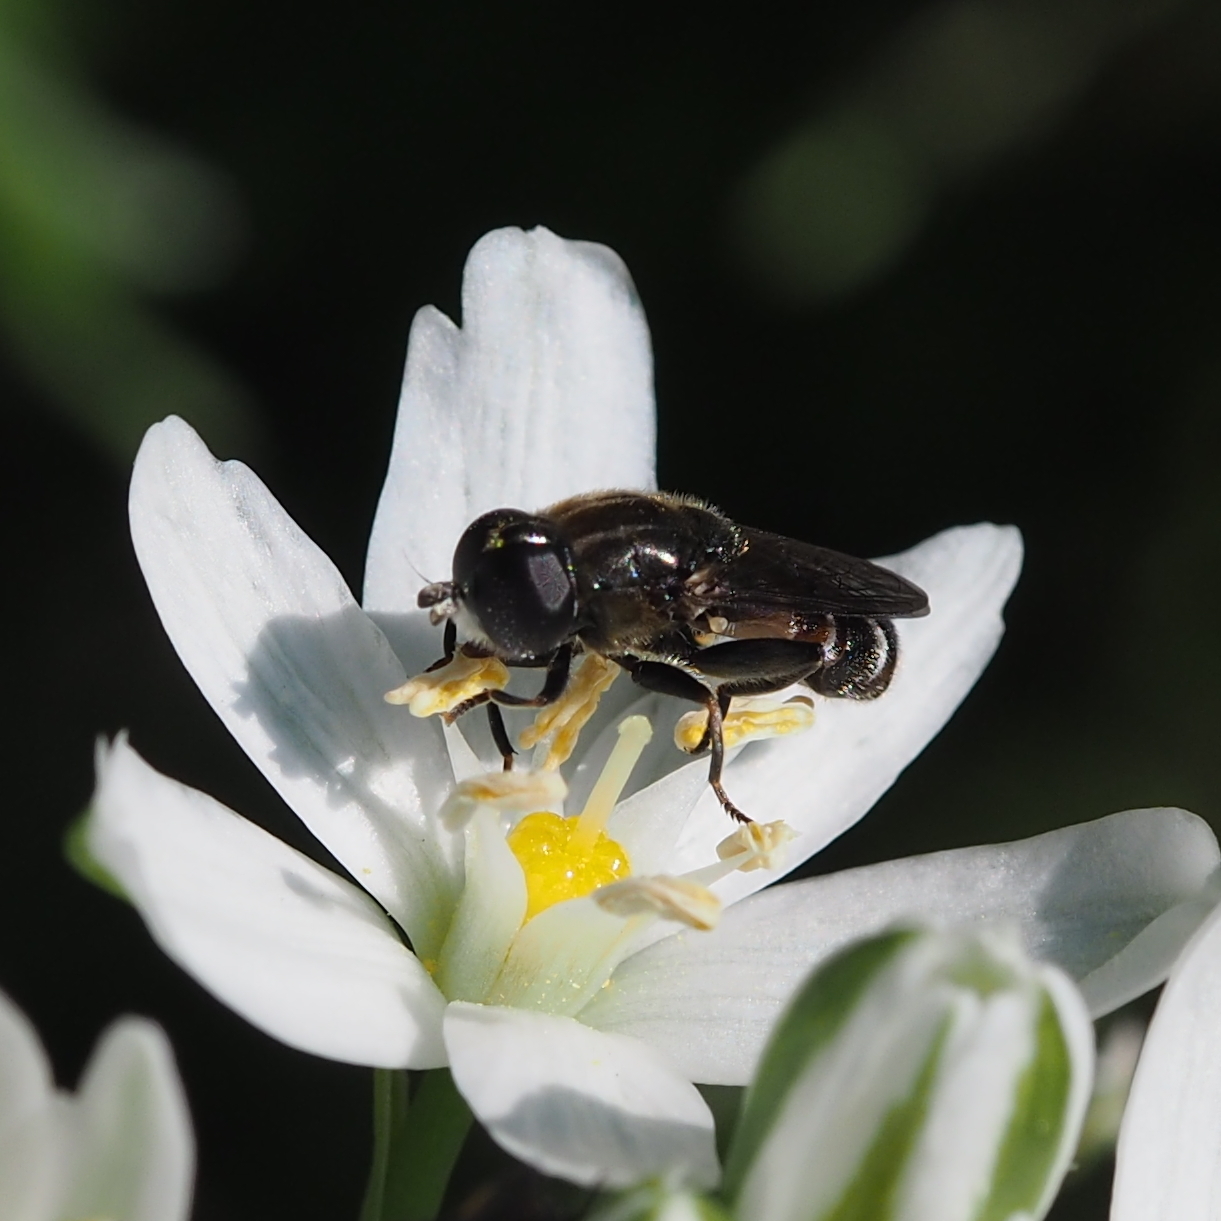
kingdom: Animalia
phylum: Arthropoda
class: Insecta
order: Diptera
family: Syrphidae
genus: Eumerus
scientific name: Eumerus grandis
